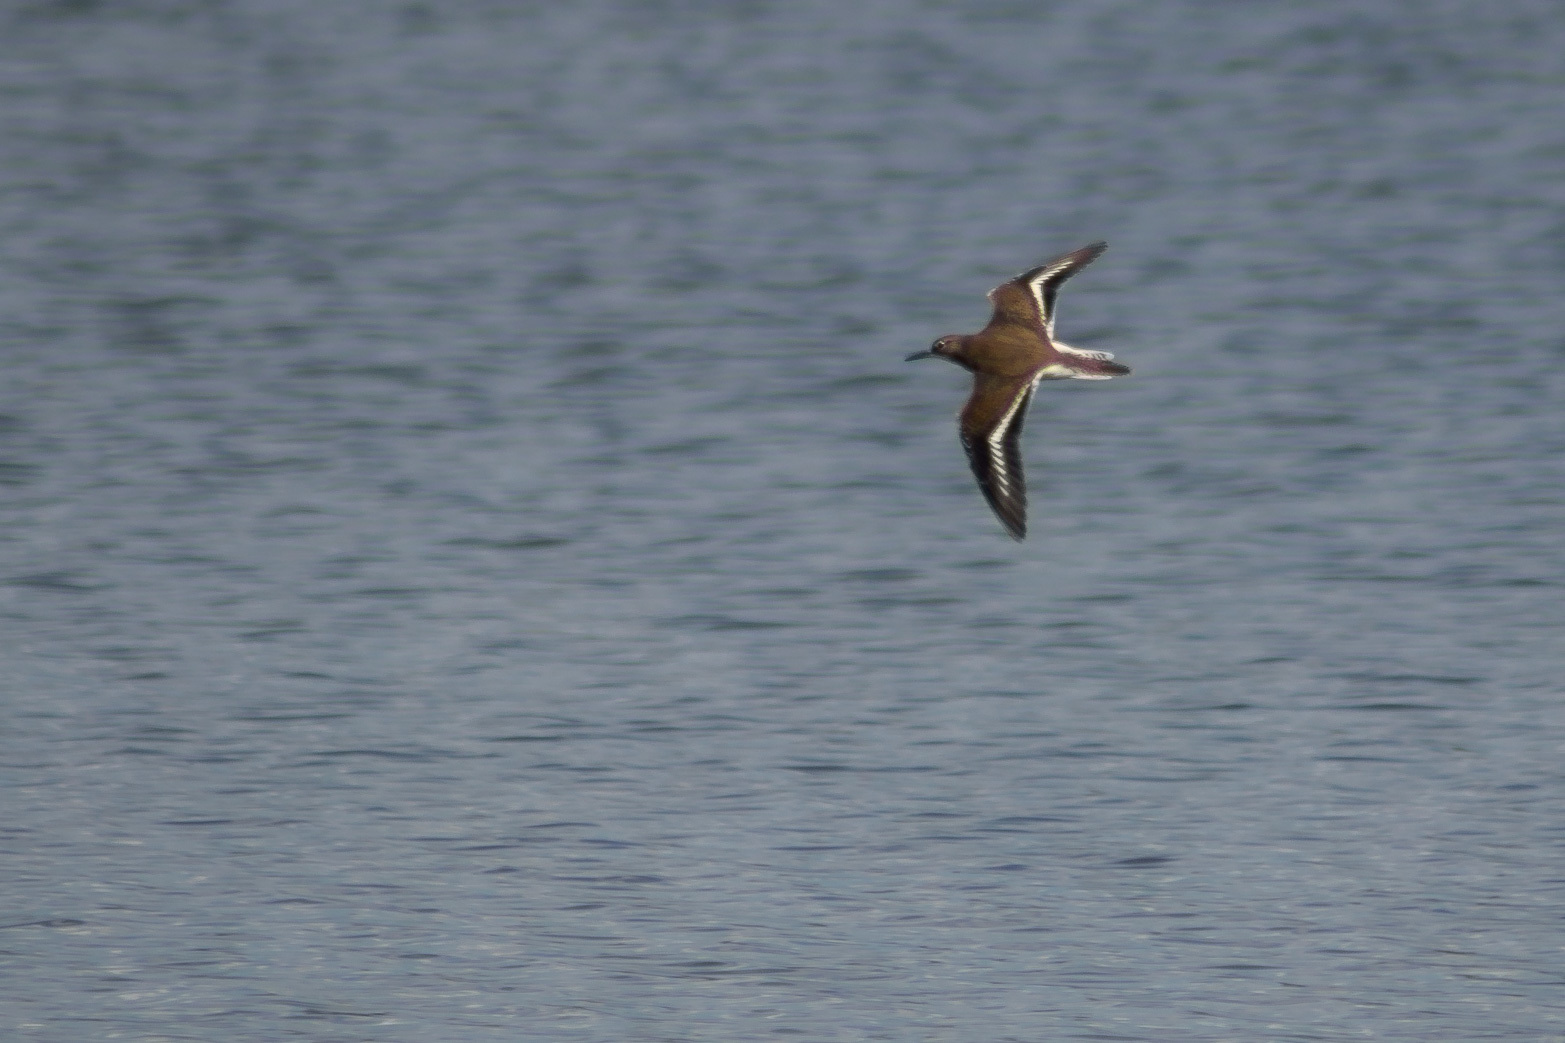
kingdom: Animalia
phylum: Chordata
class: Aves
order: Charadriiformes
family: Scolopacidae
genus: Actitis
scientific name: Actitis hypoleucos
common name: Common sandpiper
